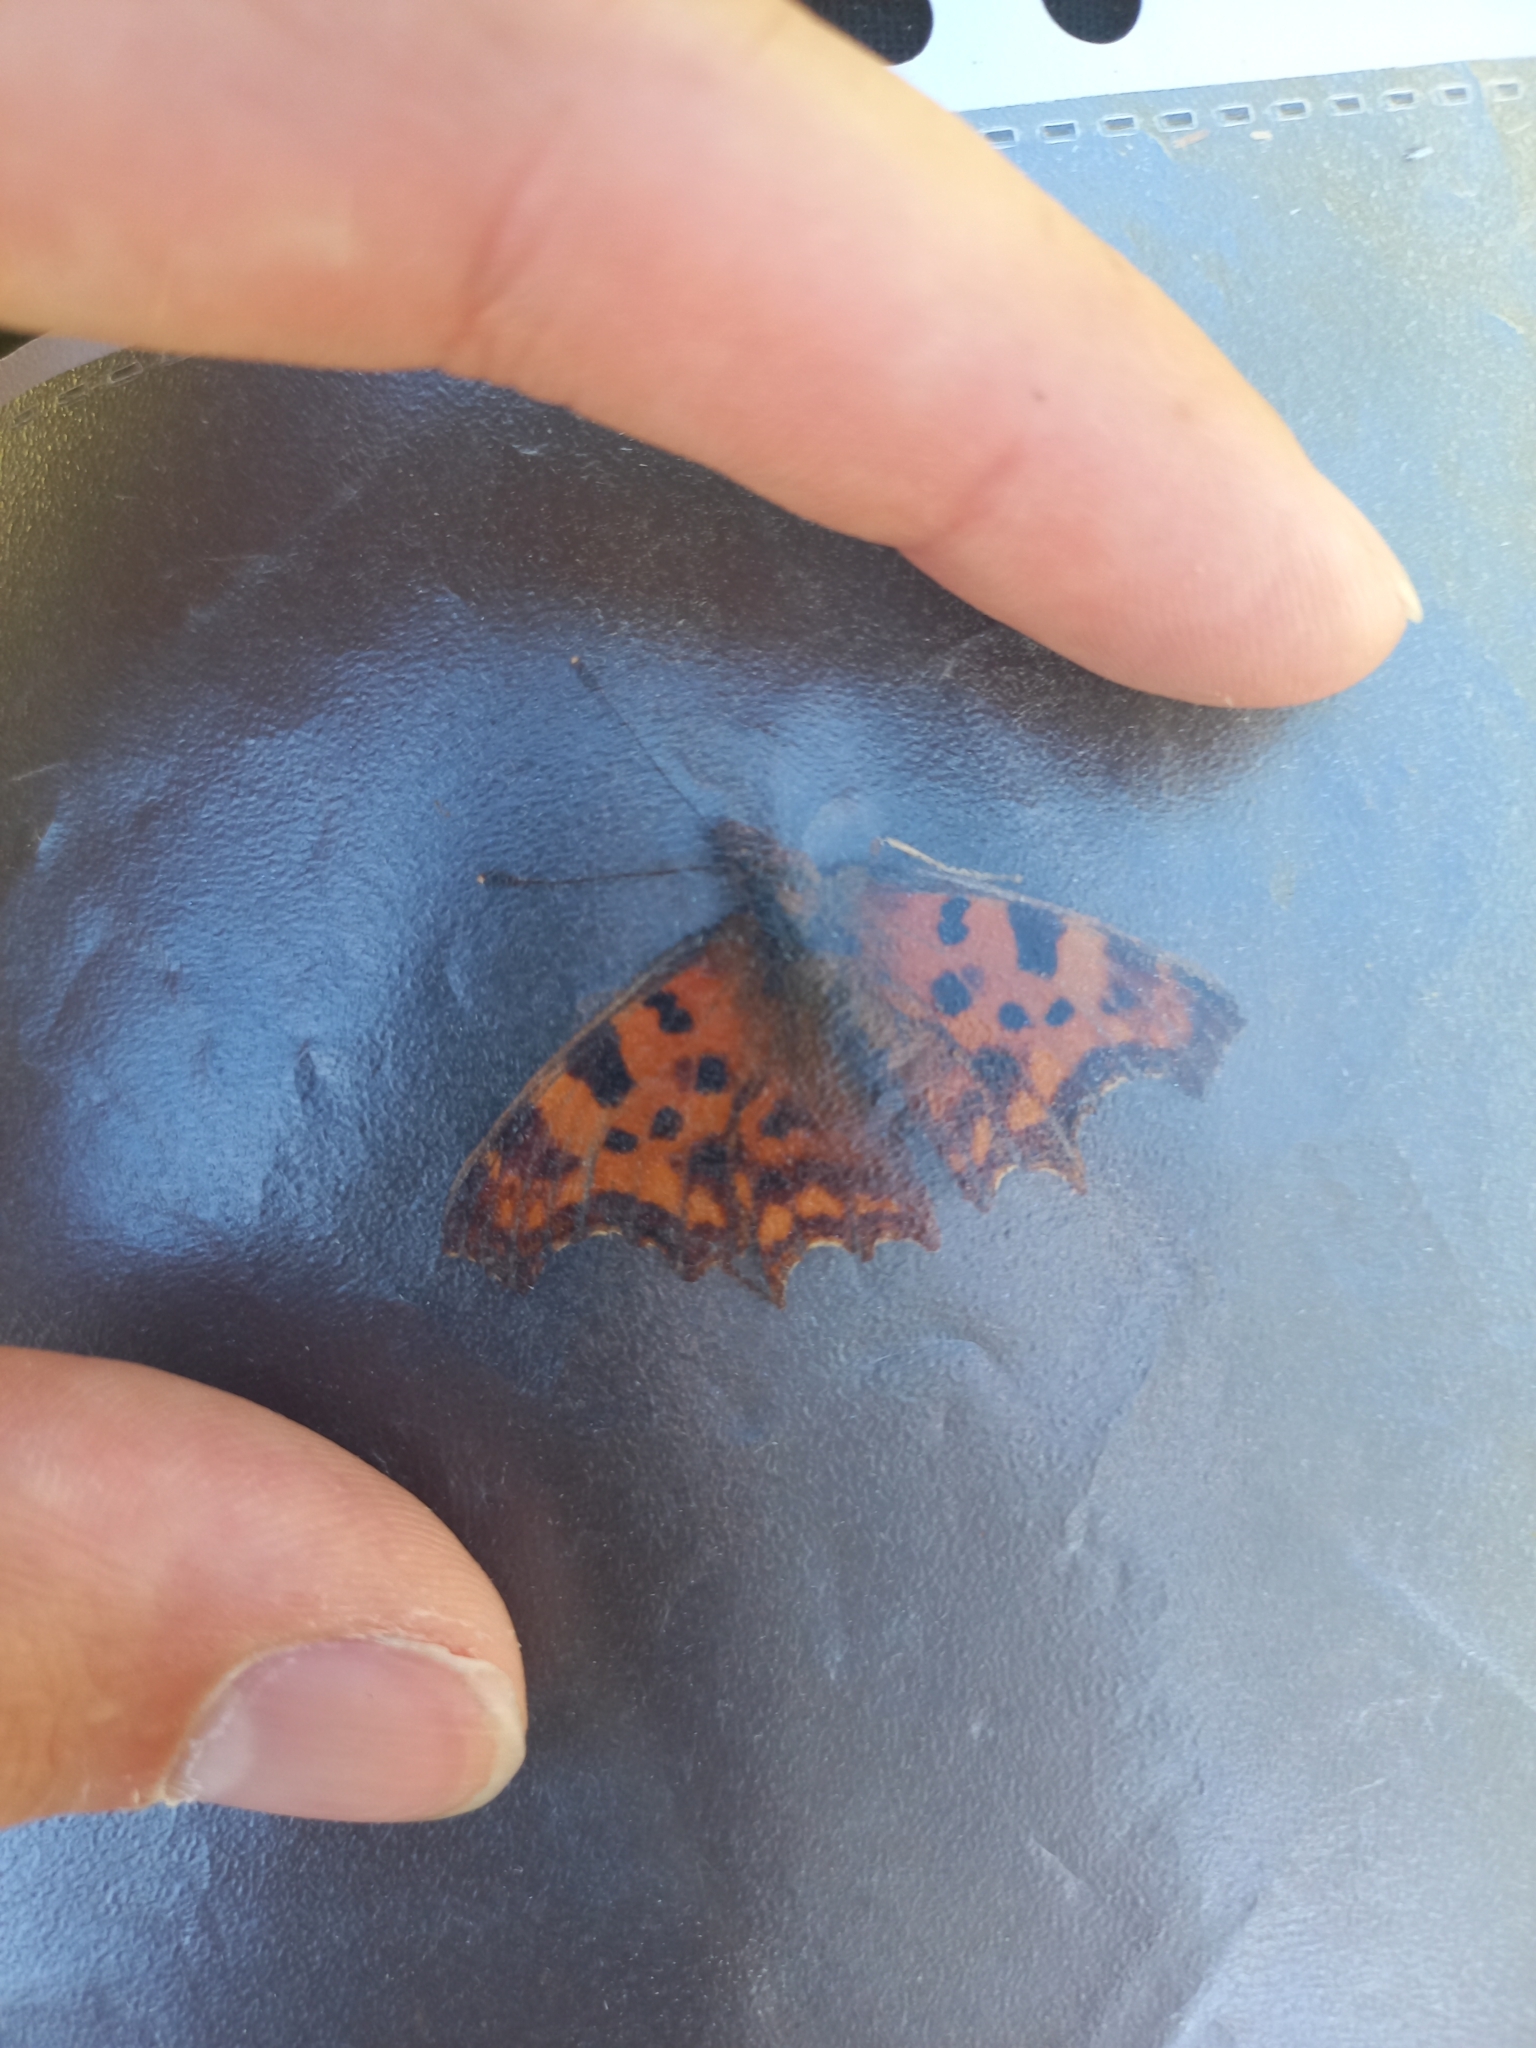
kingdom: Animalia
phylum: Arthropoda
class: Insecta
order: Lepidoptera
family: Nymphalidae
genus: Polygonia
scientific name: Polygonia c-album
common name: Comma
